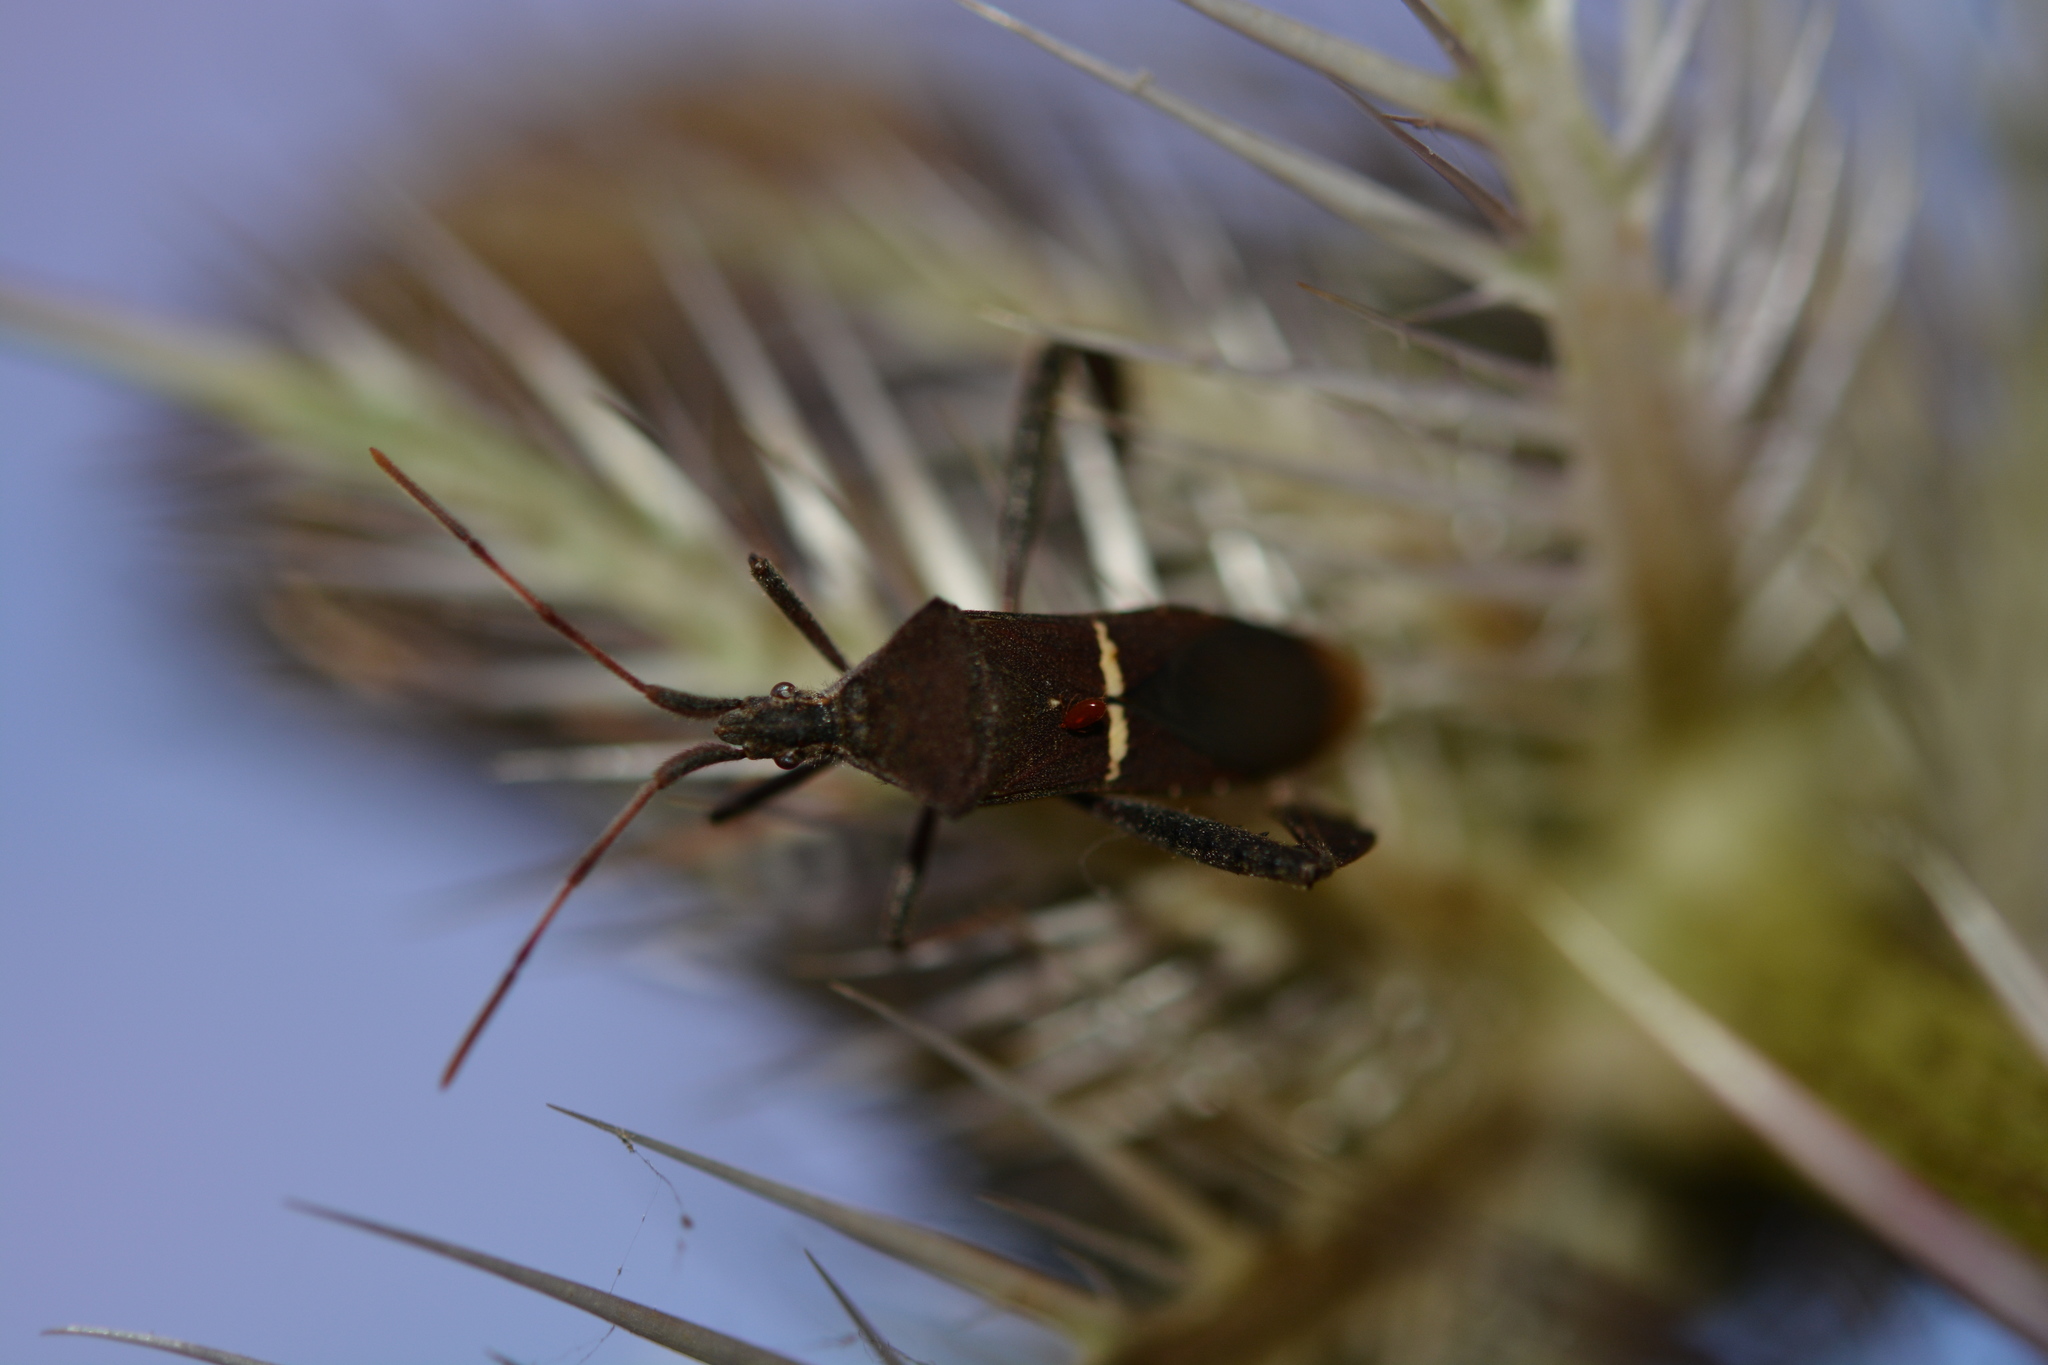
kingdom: Animalia
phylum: Arthropoda
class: Insecta
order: Hemiptera
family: Coreidae
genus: Leptoglossus
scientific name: Leptoglossus phyllopus
